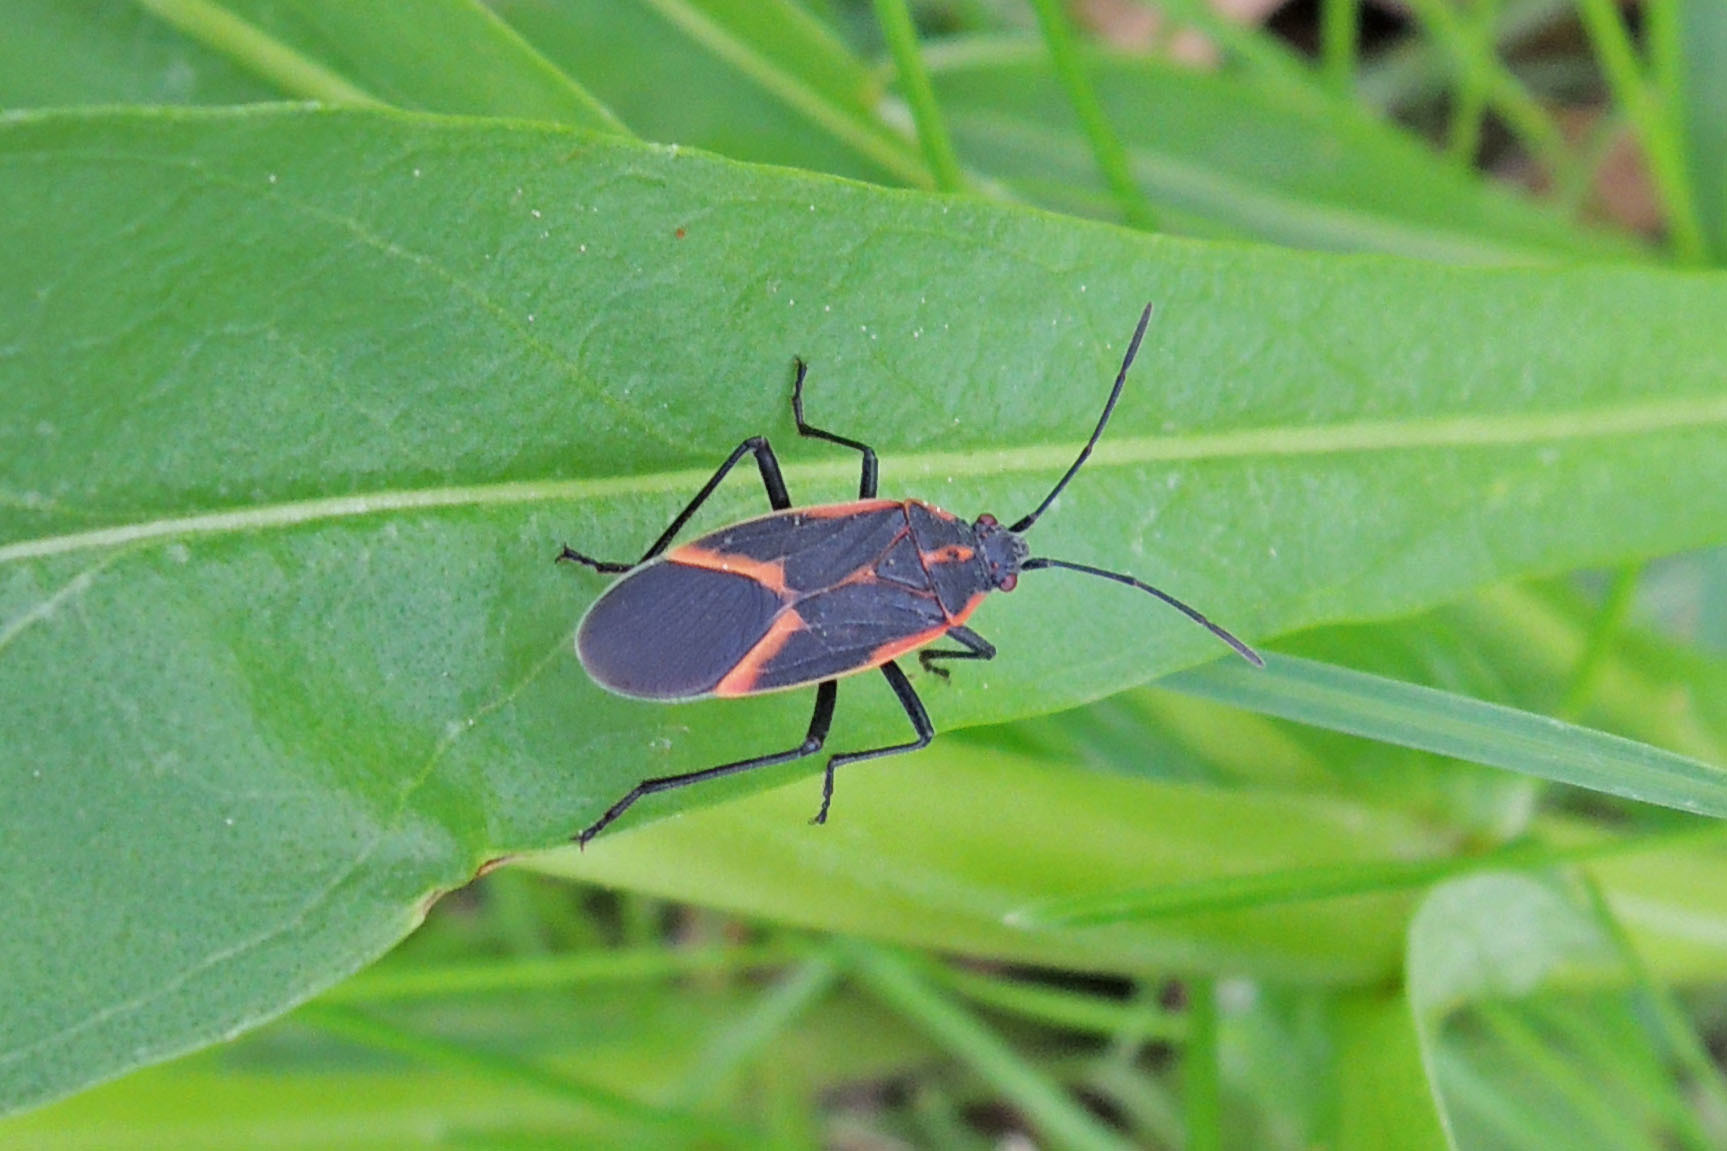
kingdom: Animalia
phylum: Arthropoda
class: Insecta
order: Hemiptera
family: Rhopalidae
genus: Boisea
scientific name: Boisea trivittata
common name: Boxelder bug
